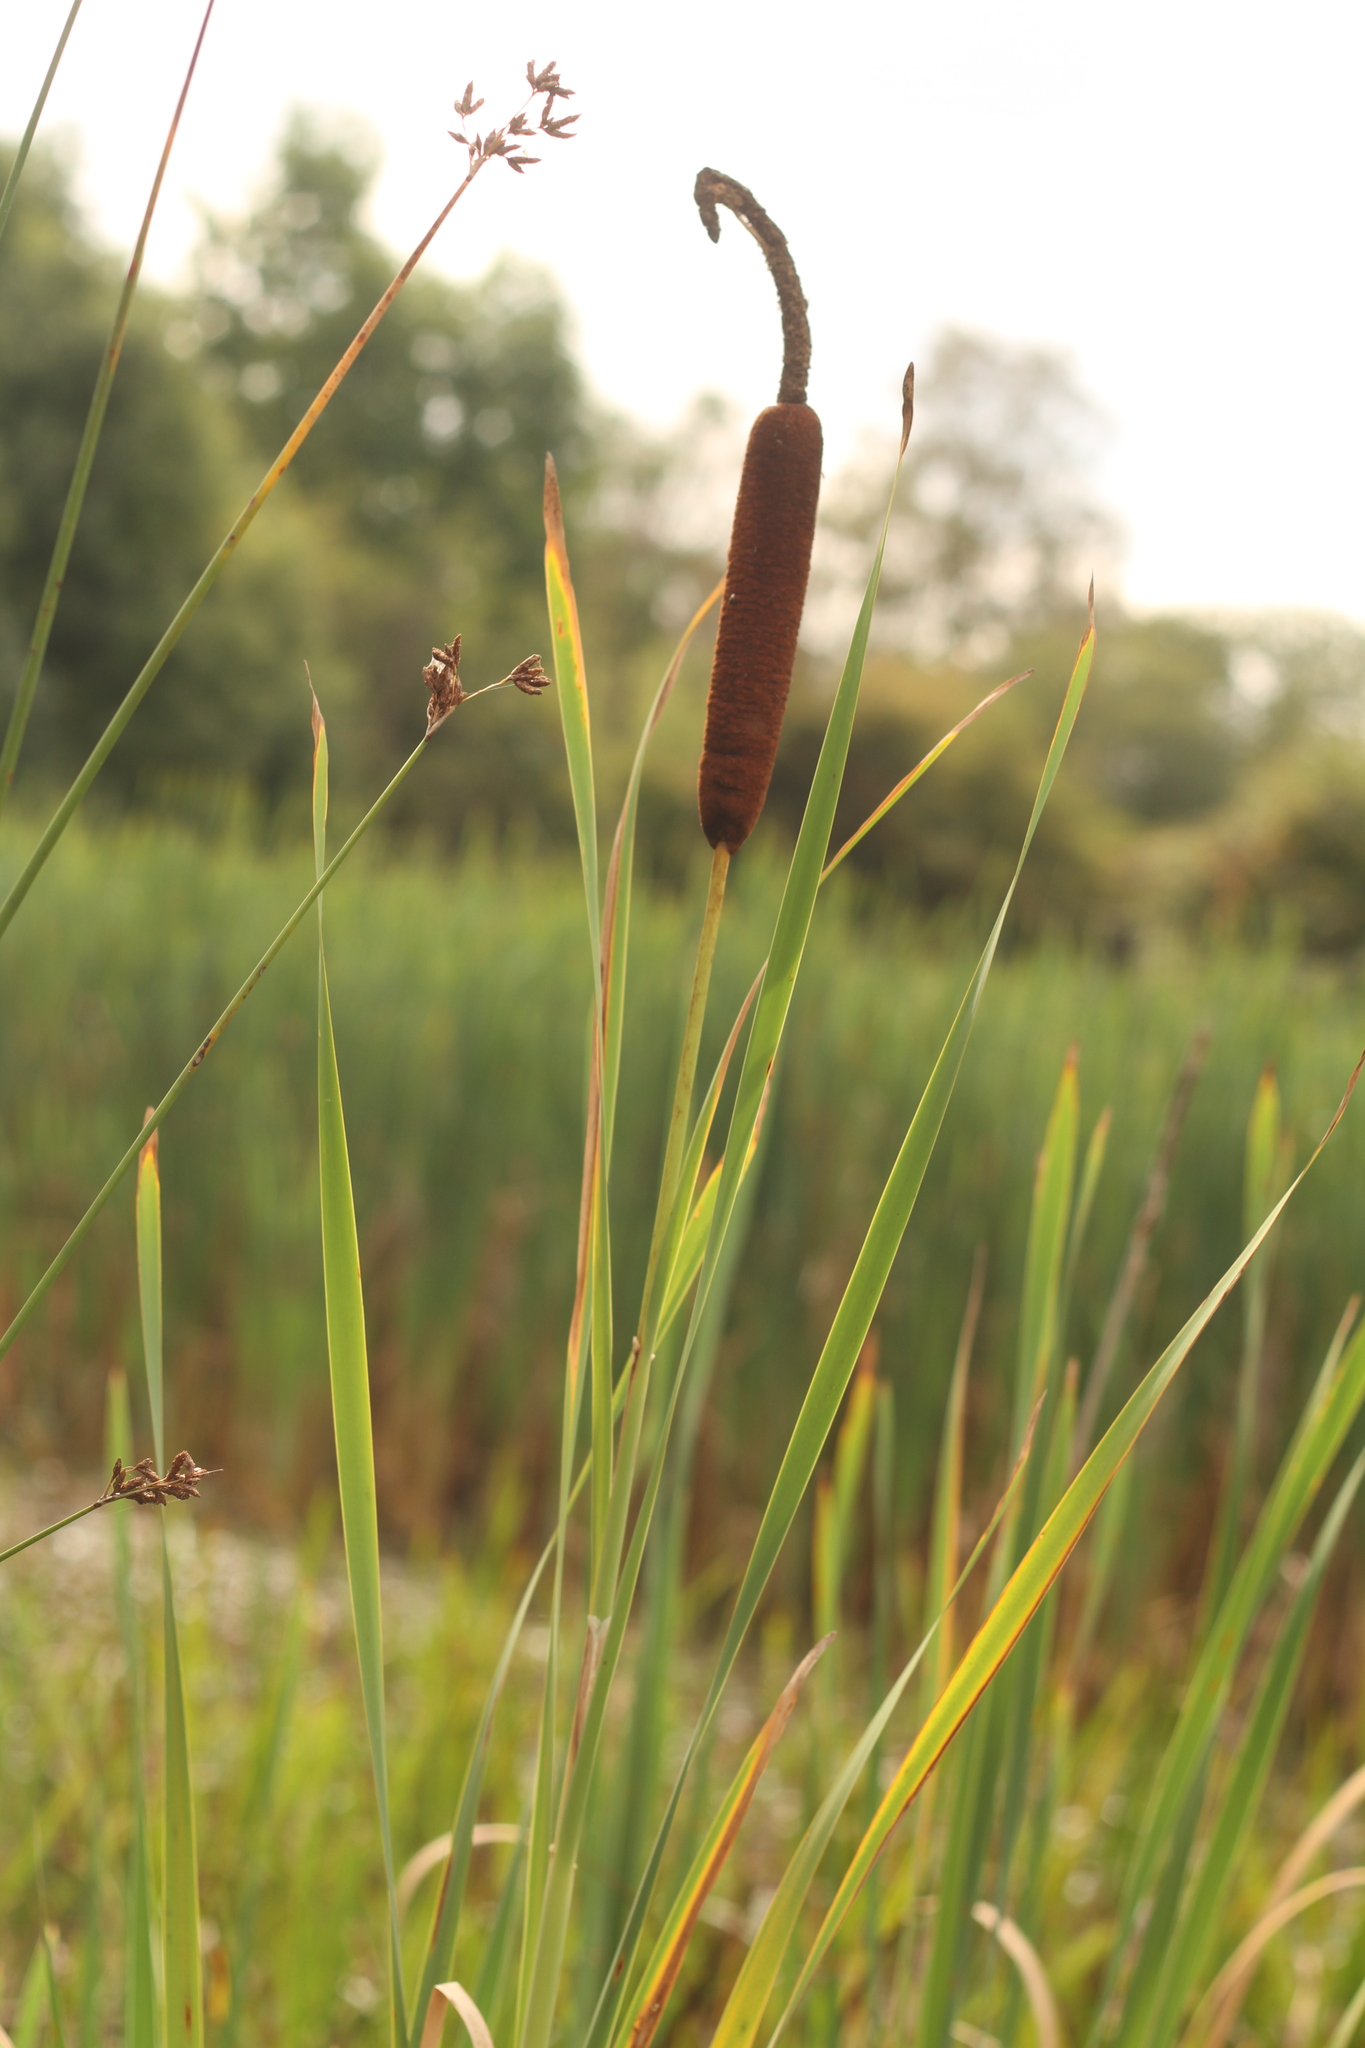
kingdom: Plantae
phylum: Tracheophyta
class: Liliopsida
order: Poales
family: Typhaceae
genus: Typha
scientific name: Typha latifolia
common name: Broadleaf cattail
